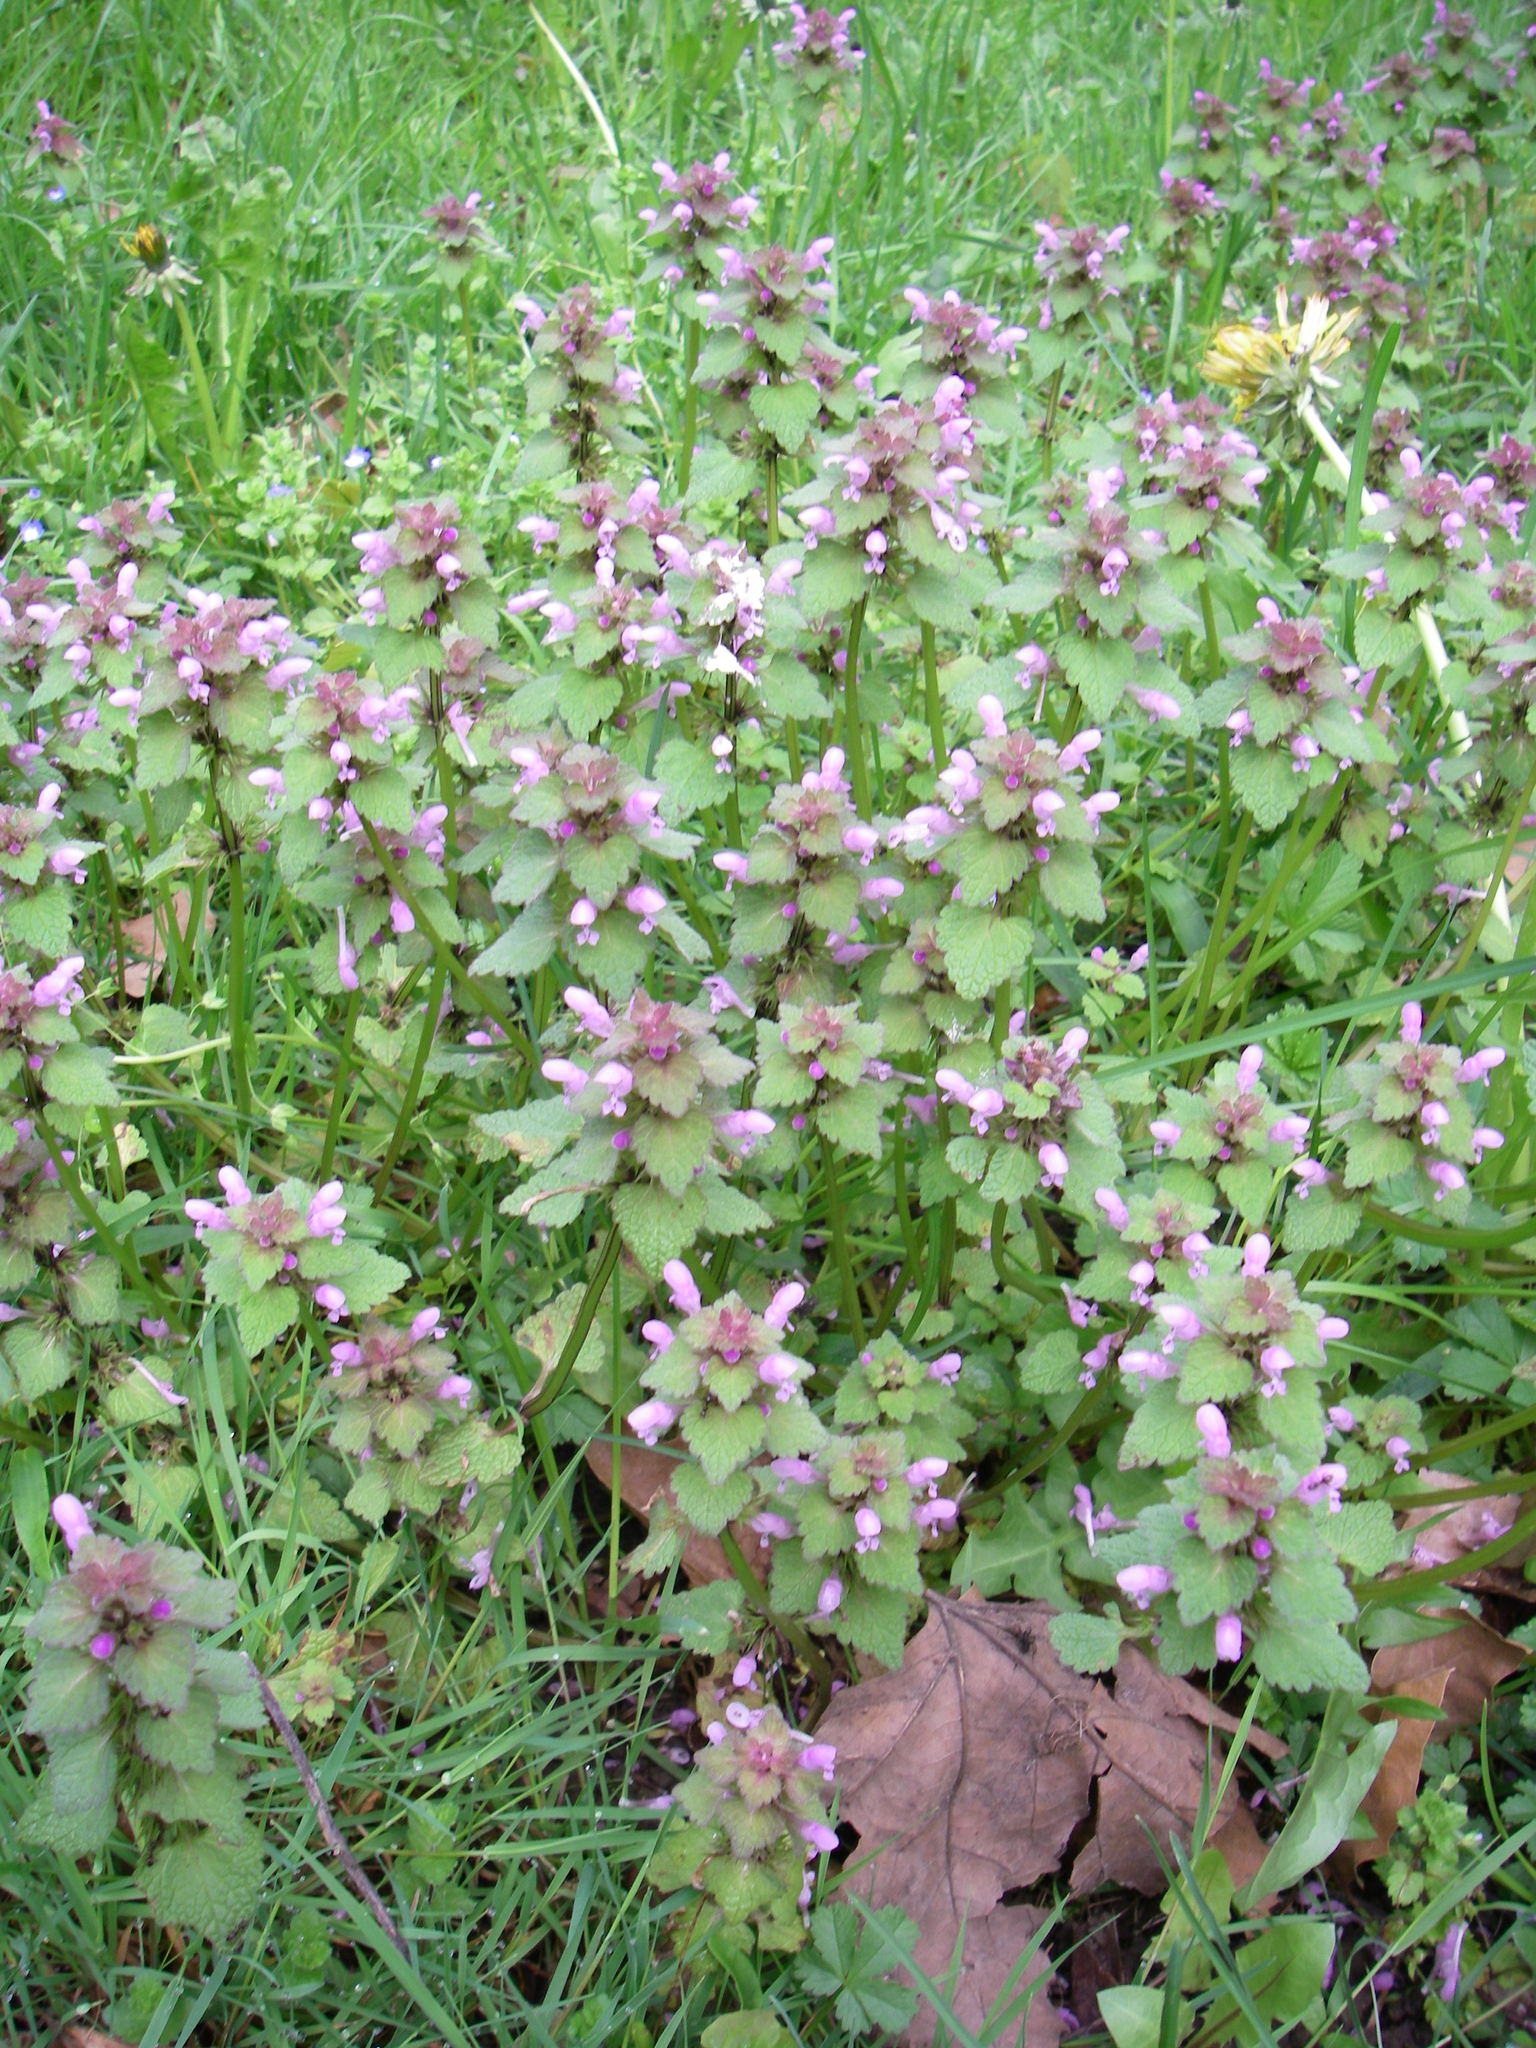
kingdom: Plantae
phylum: Tracheophyta
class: Magnoliopsida
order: Lamiales
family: Lamiaceae
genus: Lamium
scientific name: Lamium purpureum
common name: Red dead-nettle
